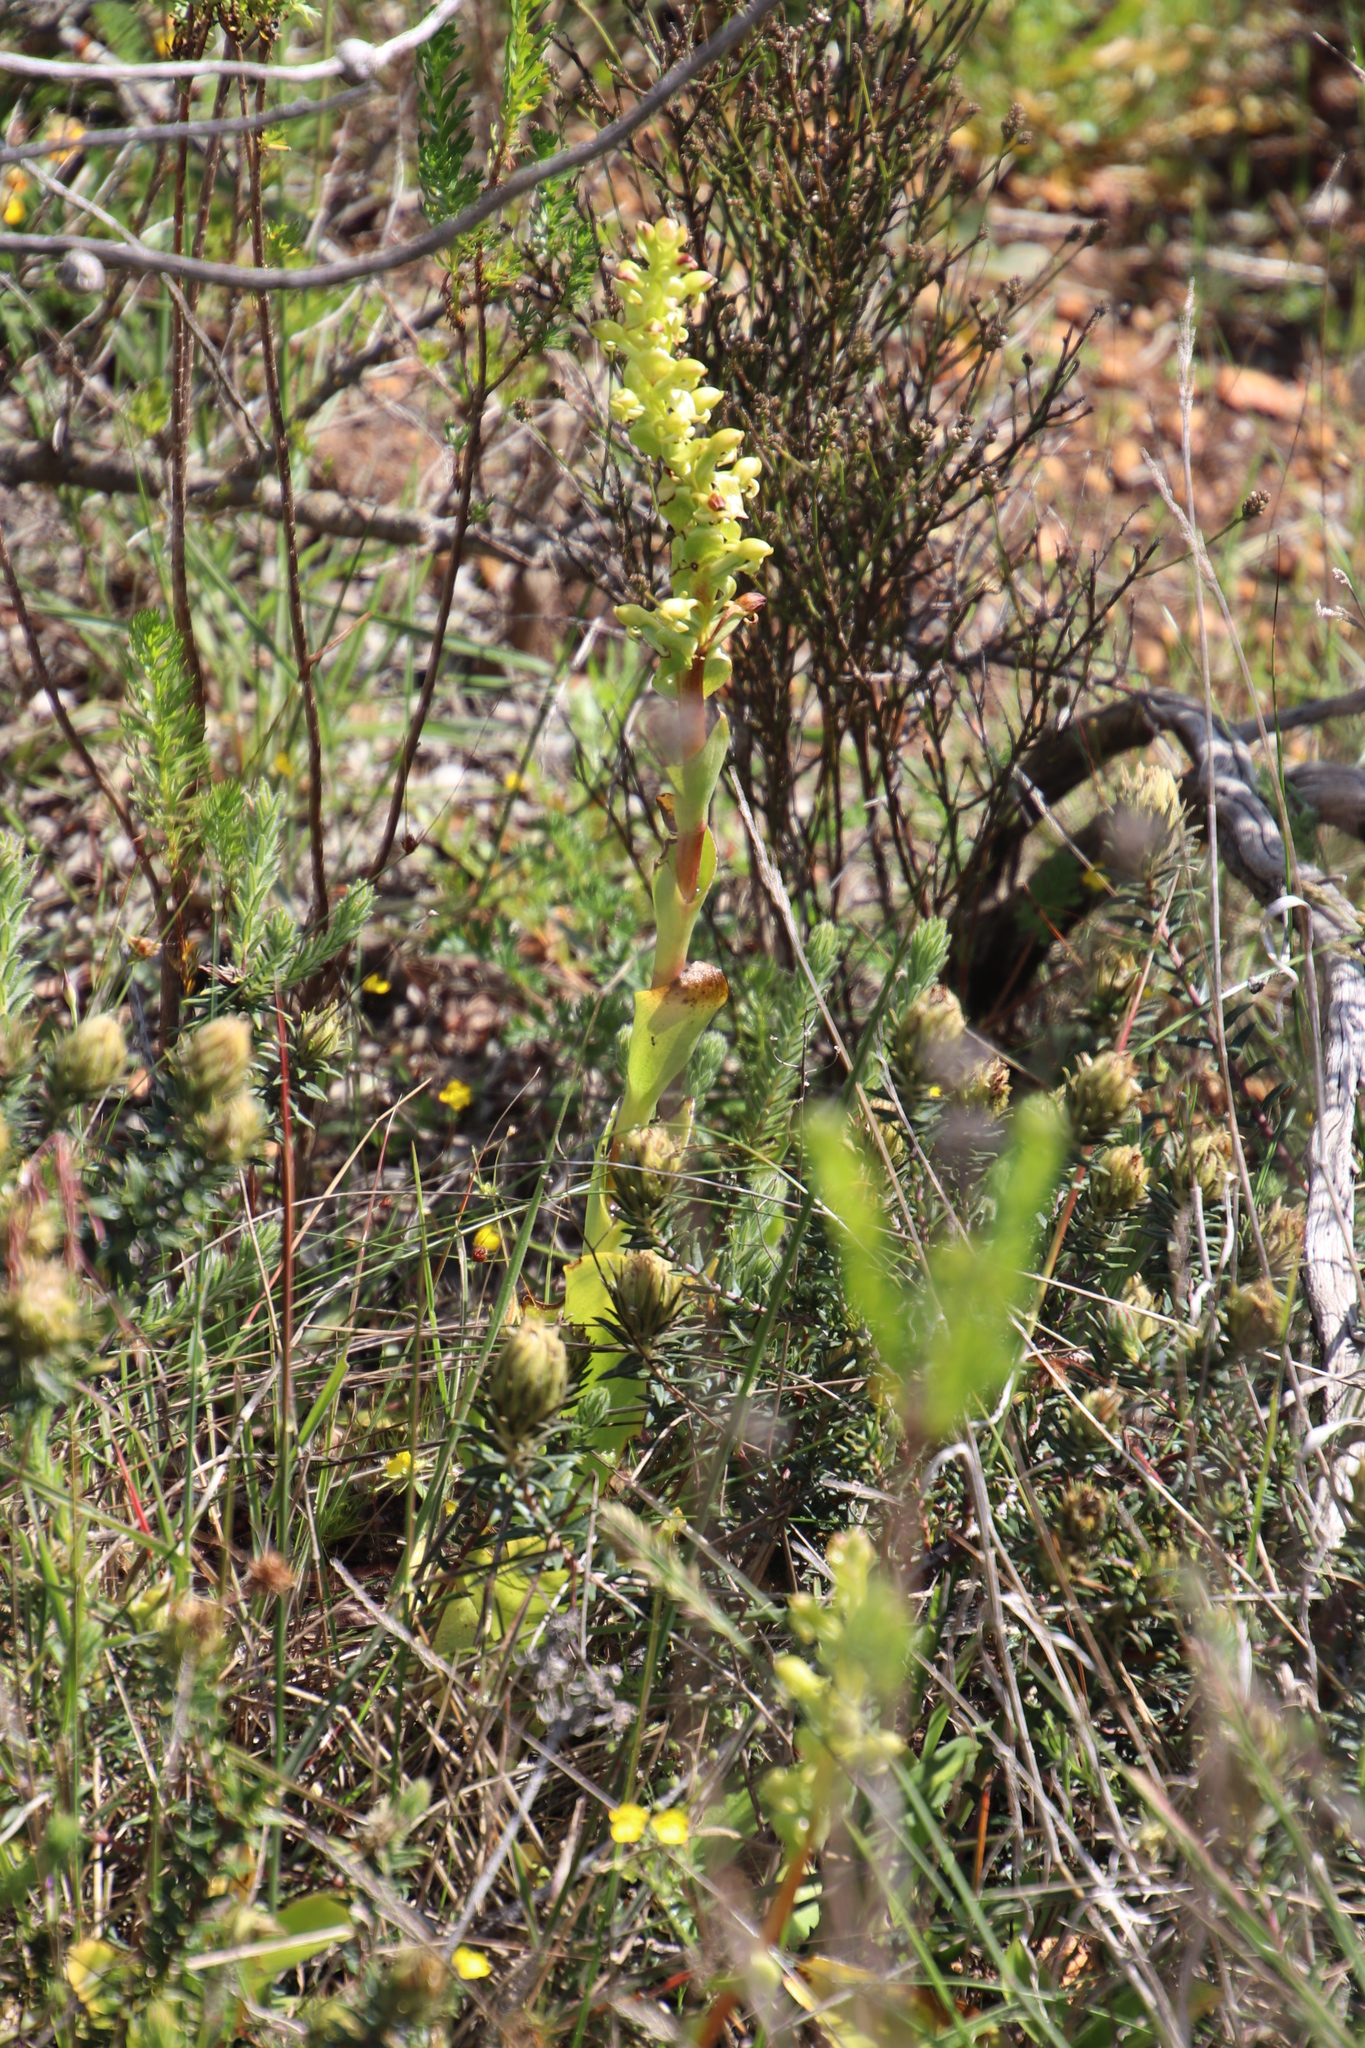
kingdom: Plantae
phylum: Tracheophyta
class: Liliopsida
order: Asparagales
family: Orchidaceae
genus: Satyrium
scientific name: Satyrium odorum
